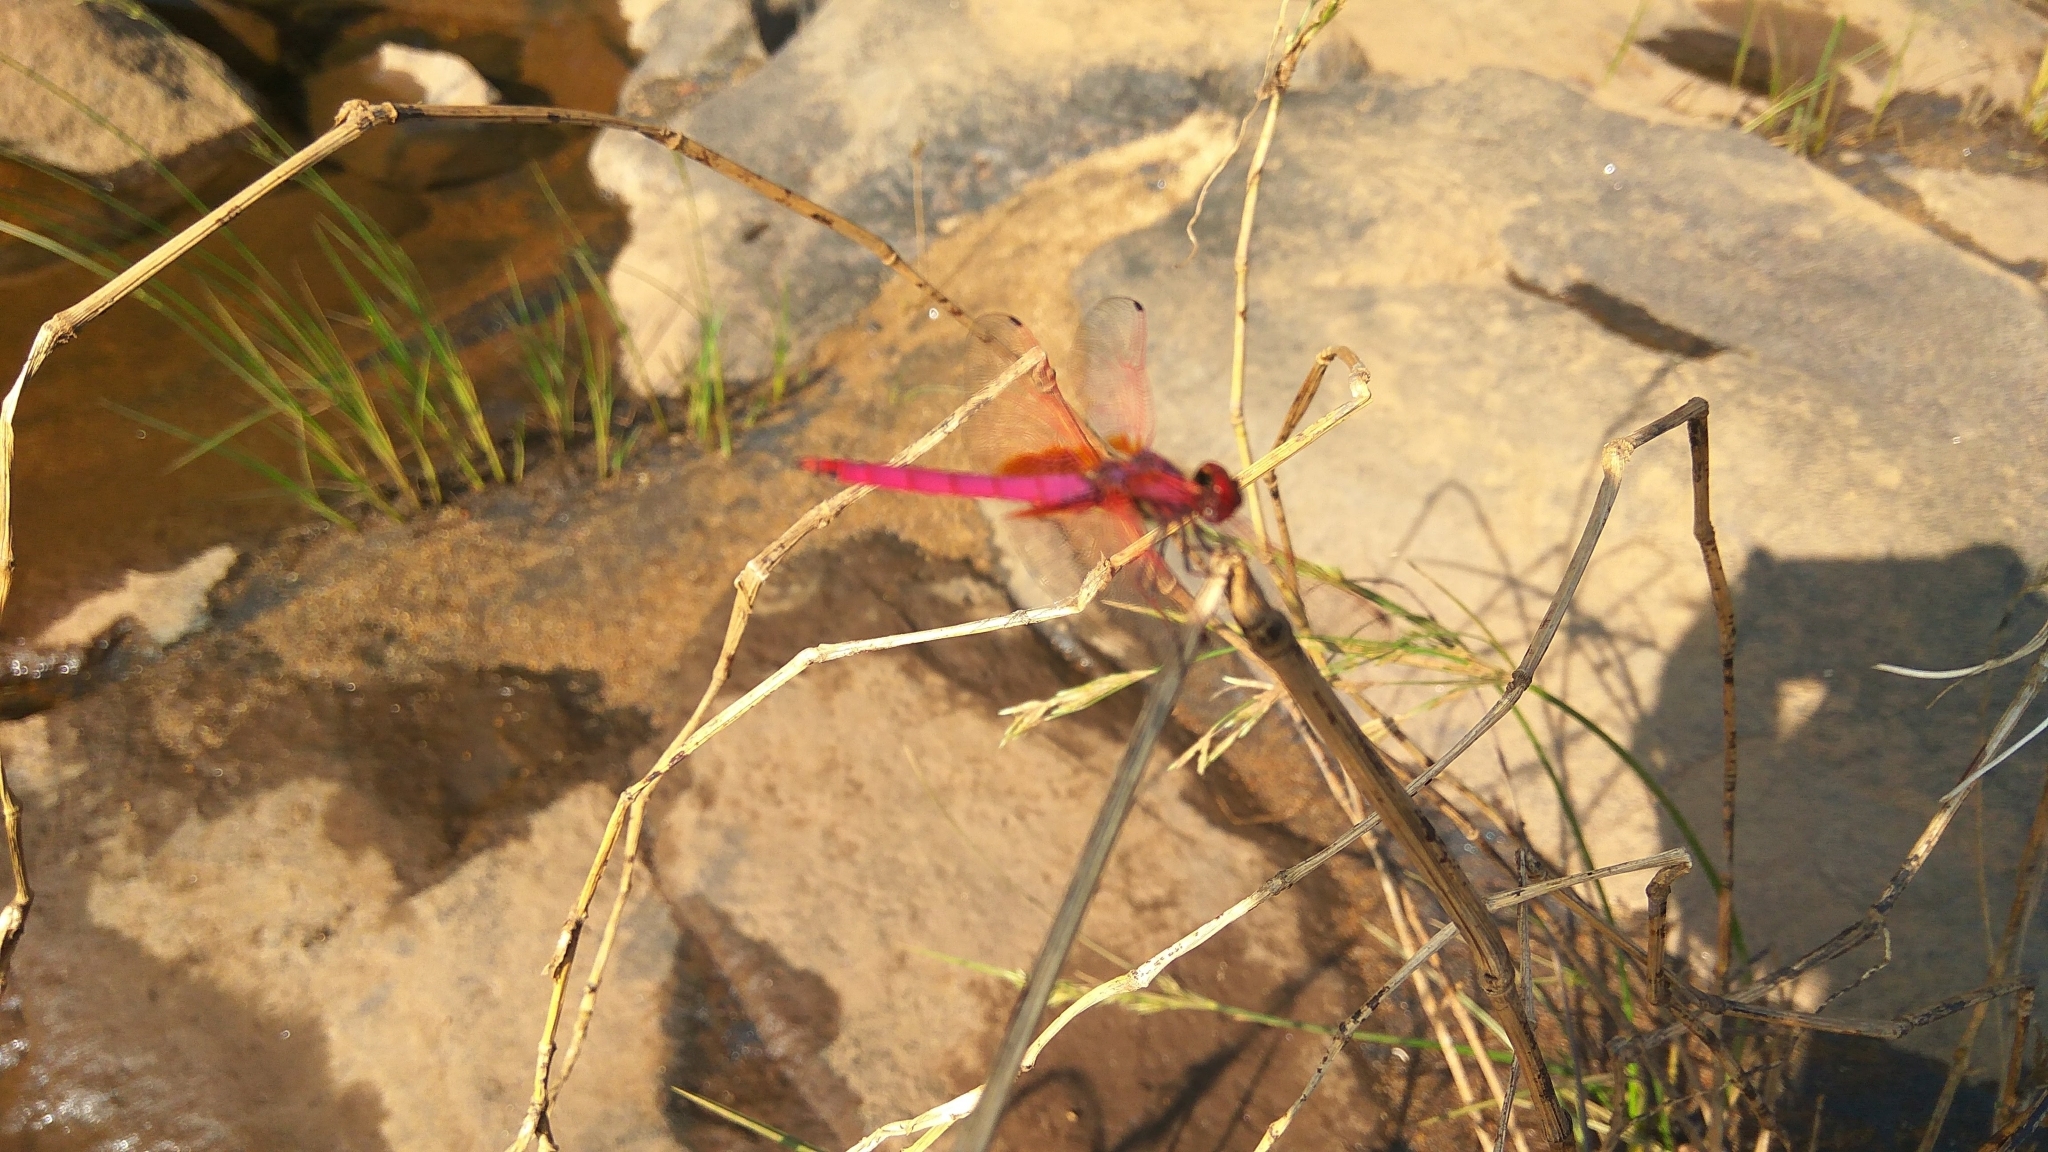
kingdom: Animalia
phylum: Arthropoda
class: Insecta
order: Odonata
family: Libellulidae
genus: Trithemis
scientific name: Trithemis aurora
